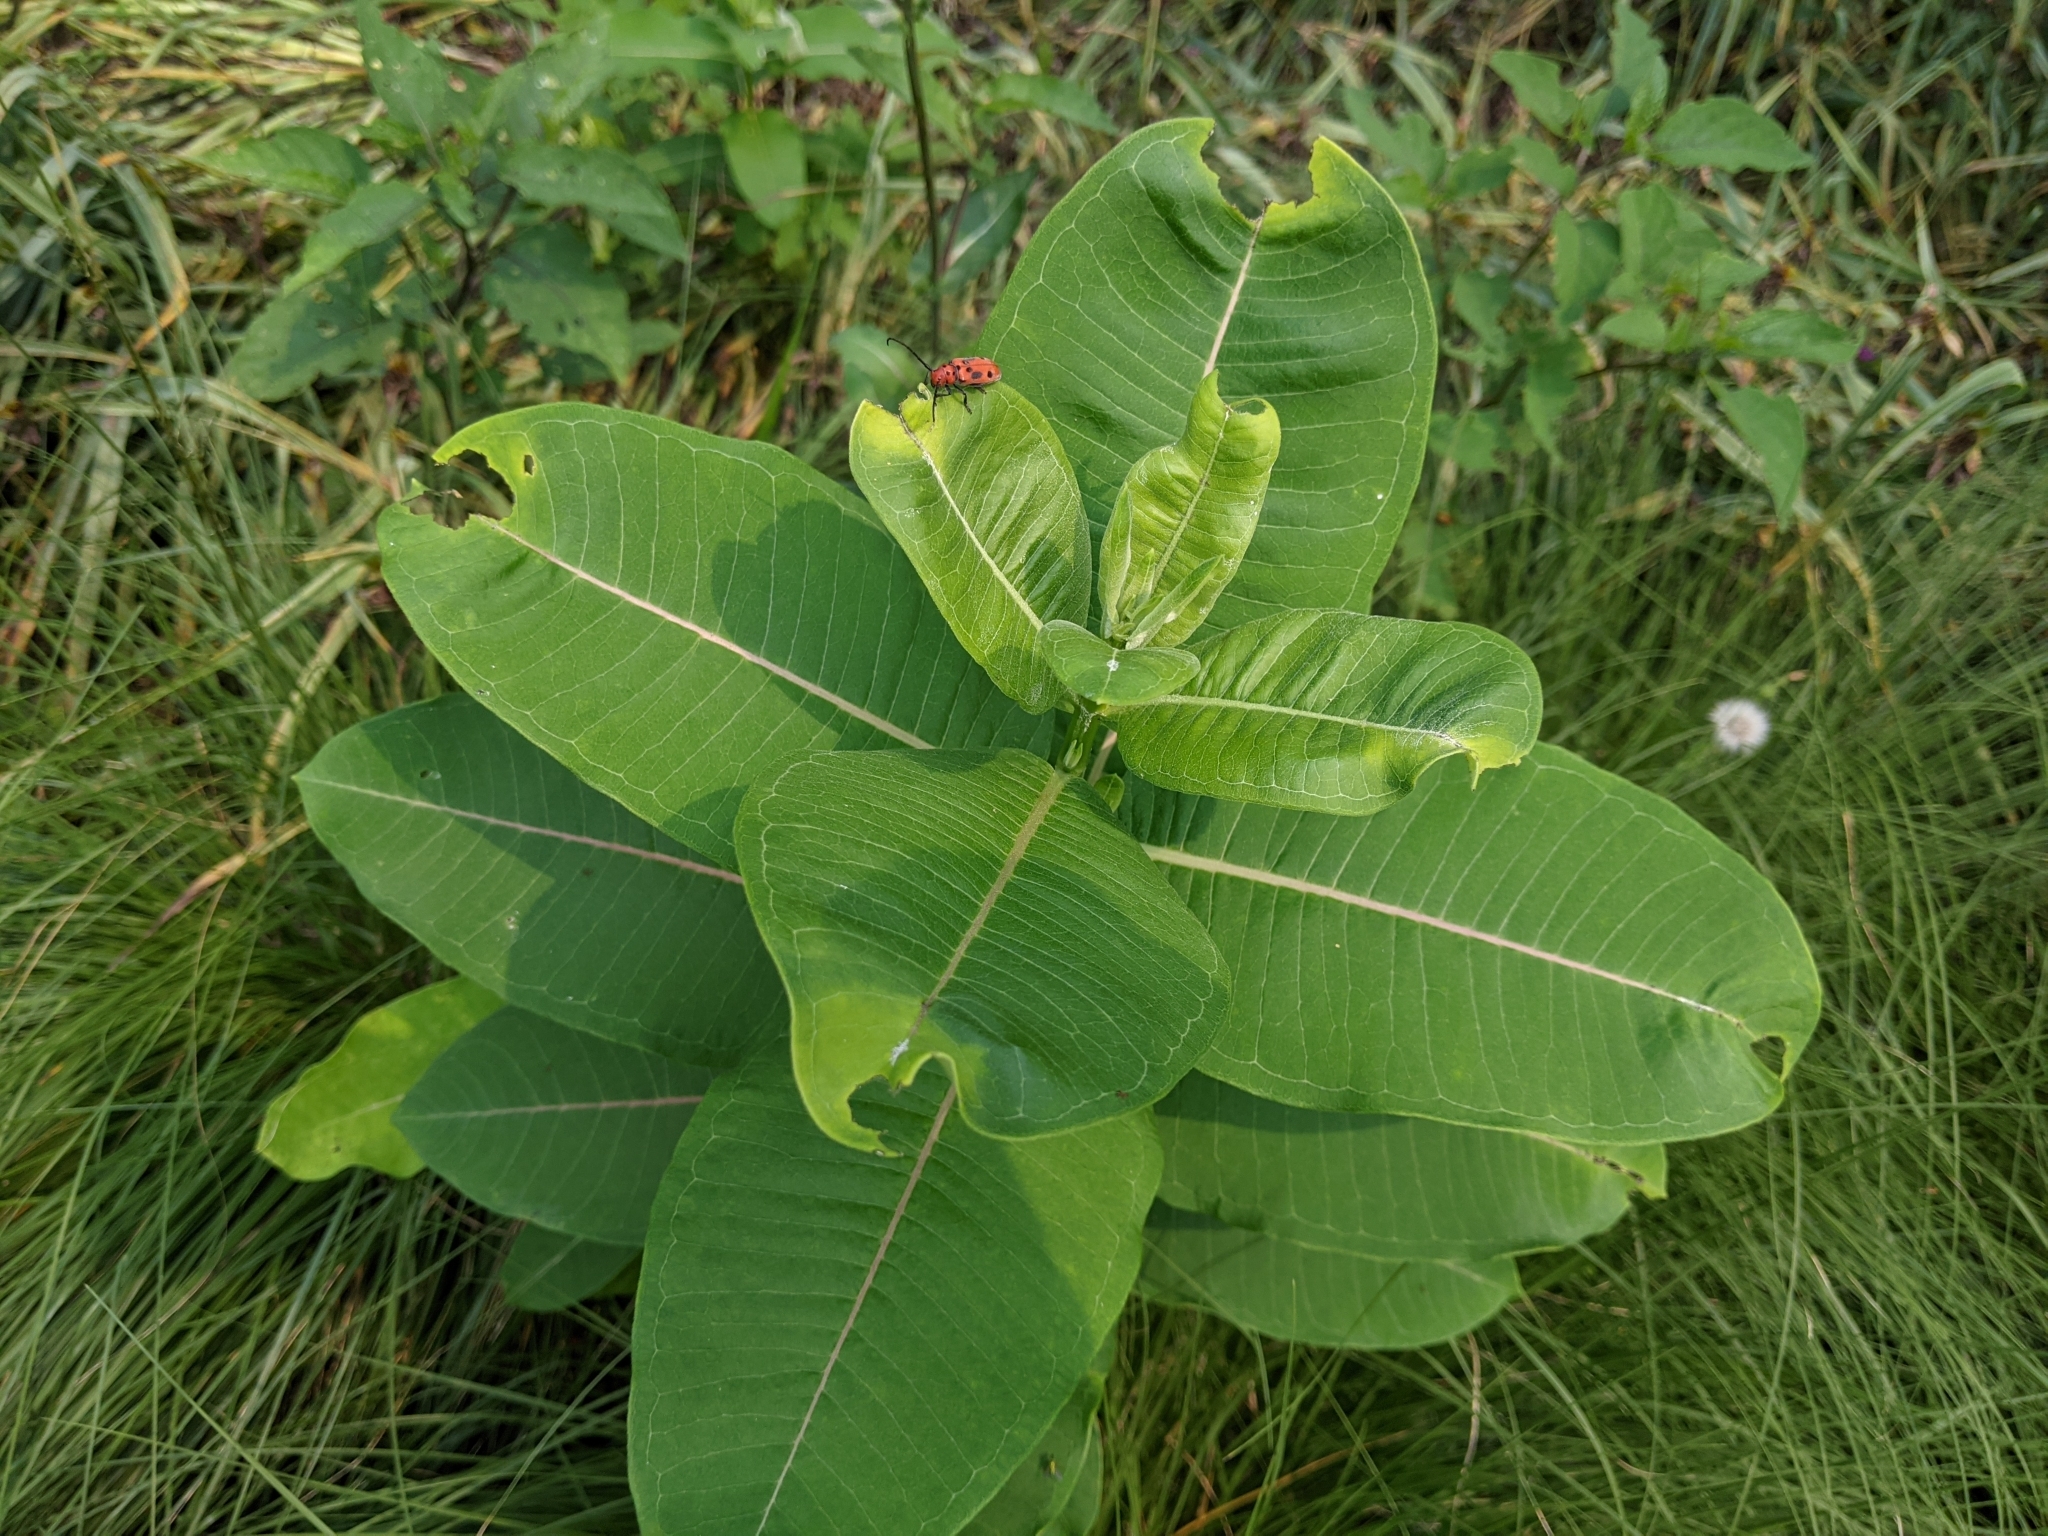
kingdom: Plantae
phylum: Tracheophyta
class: Magnoliopsida
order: Gentianales
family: Apocynaceae
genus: Asclepias
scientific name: Asclepias syriaca
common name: Common milkweed
